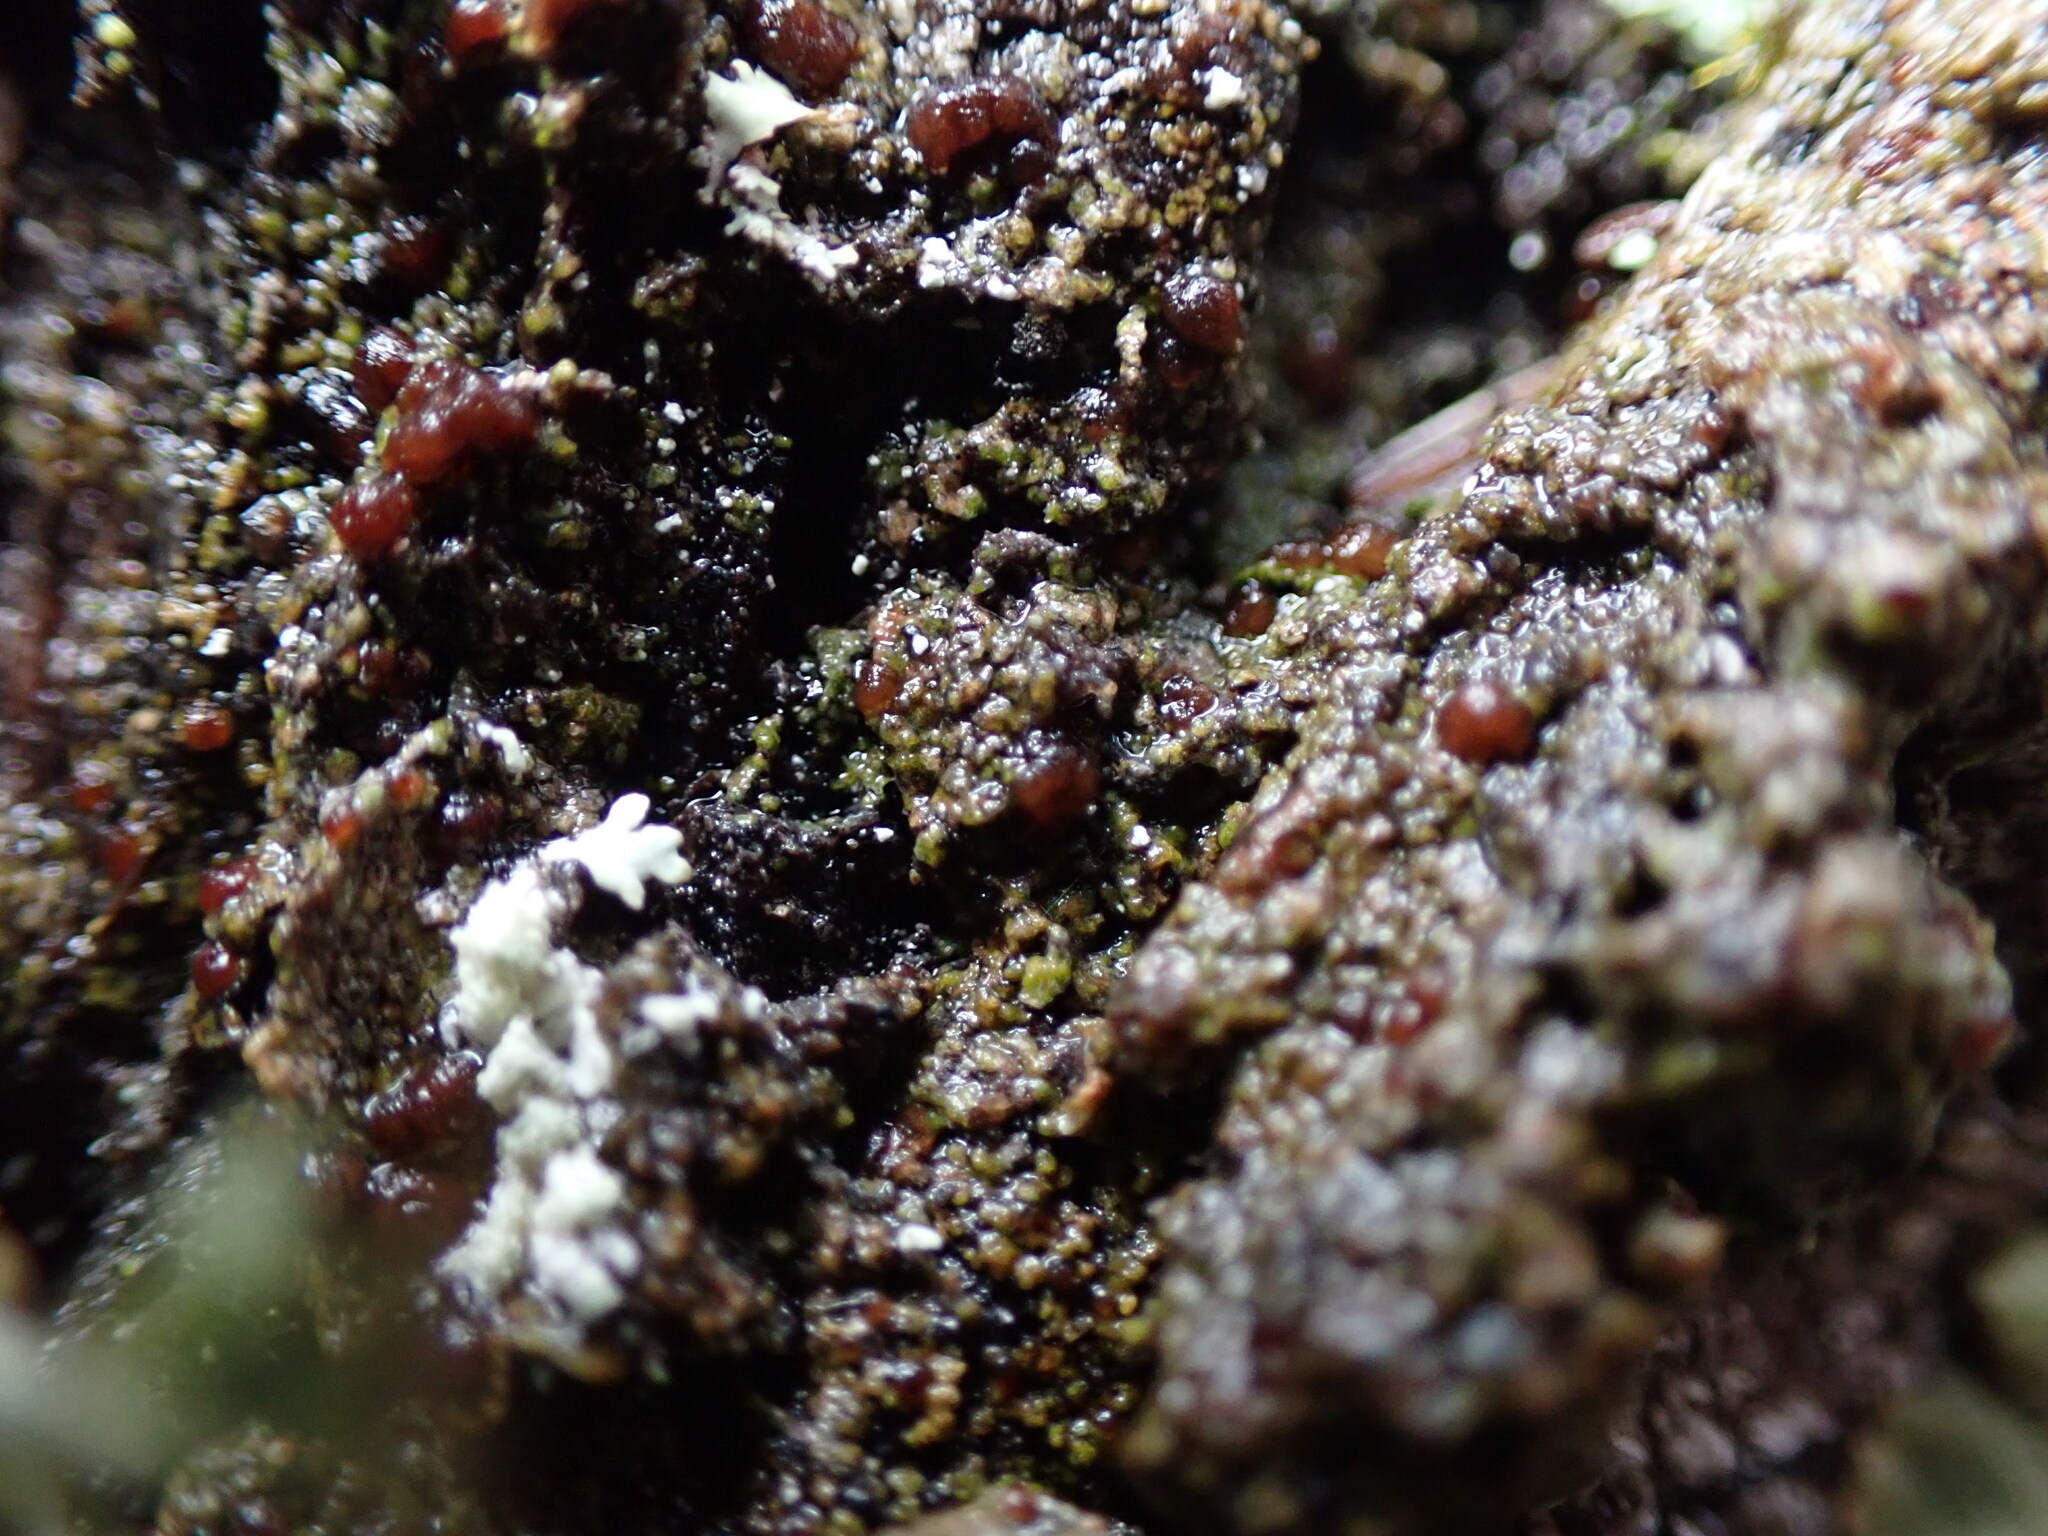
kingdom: Fungi
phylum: Ascomycota
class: Lecanoromycetes
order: Lecanorales
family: Lecanoraceae
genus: Japewia
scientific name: Japewia tornoensis
